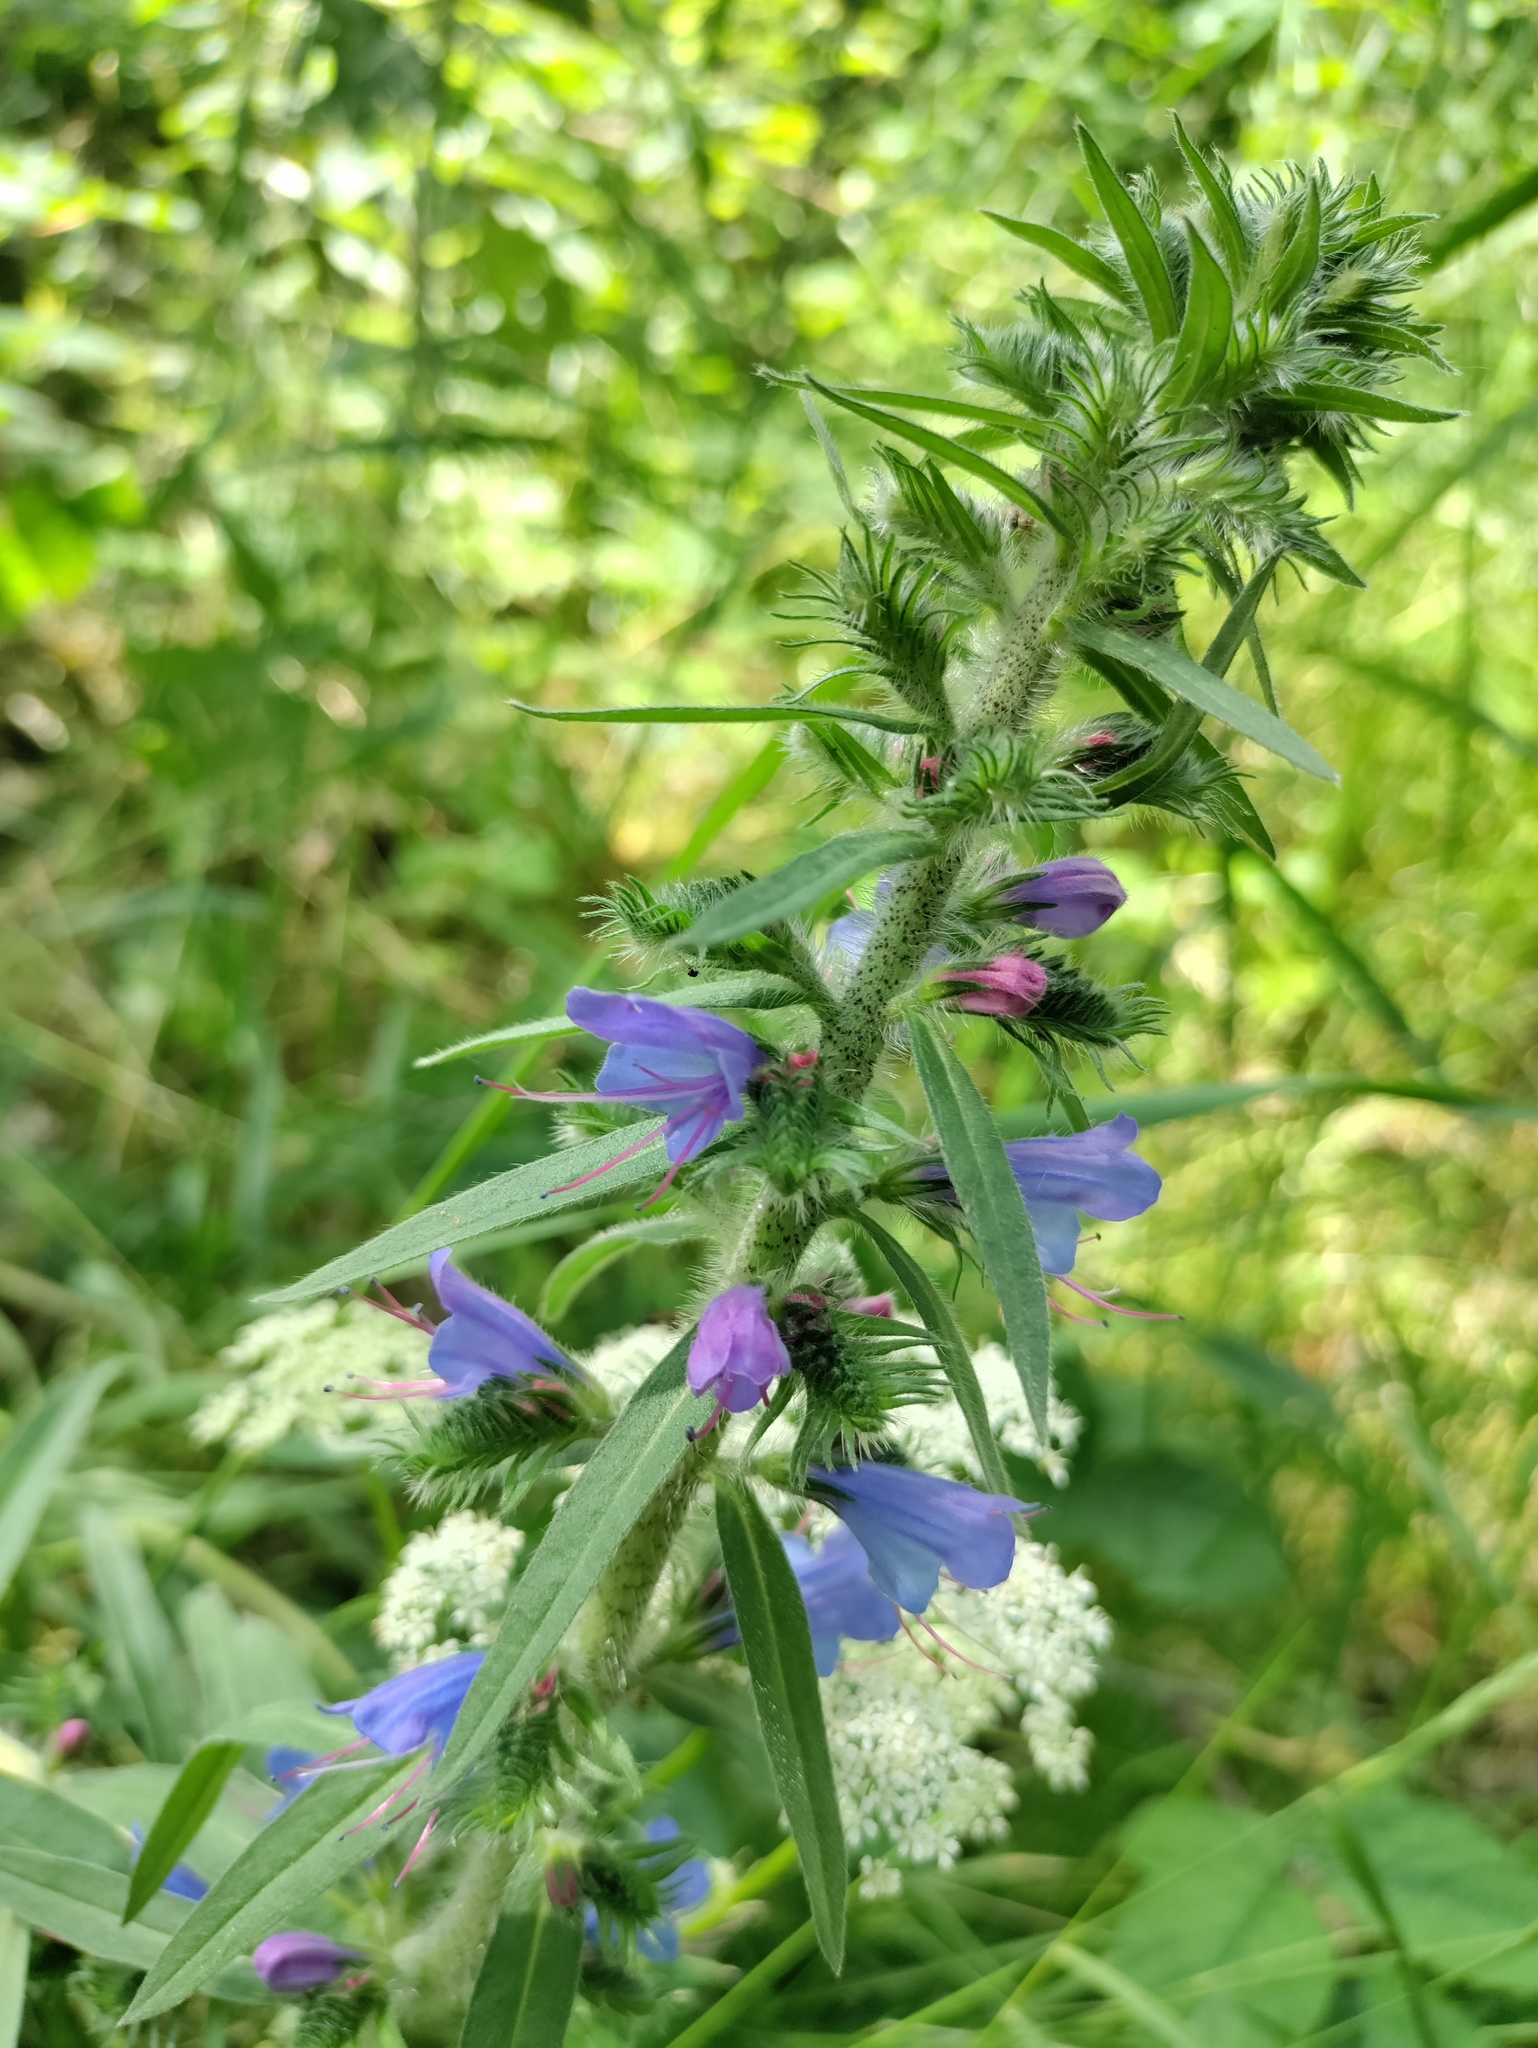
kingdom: Plantae
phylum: Tracheophyta
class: Magnoliopsida
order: Boraginales
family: Boraginaceae
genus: Echium
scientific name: Echium vulgare
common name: Common viper's bugloss
